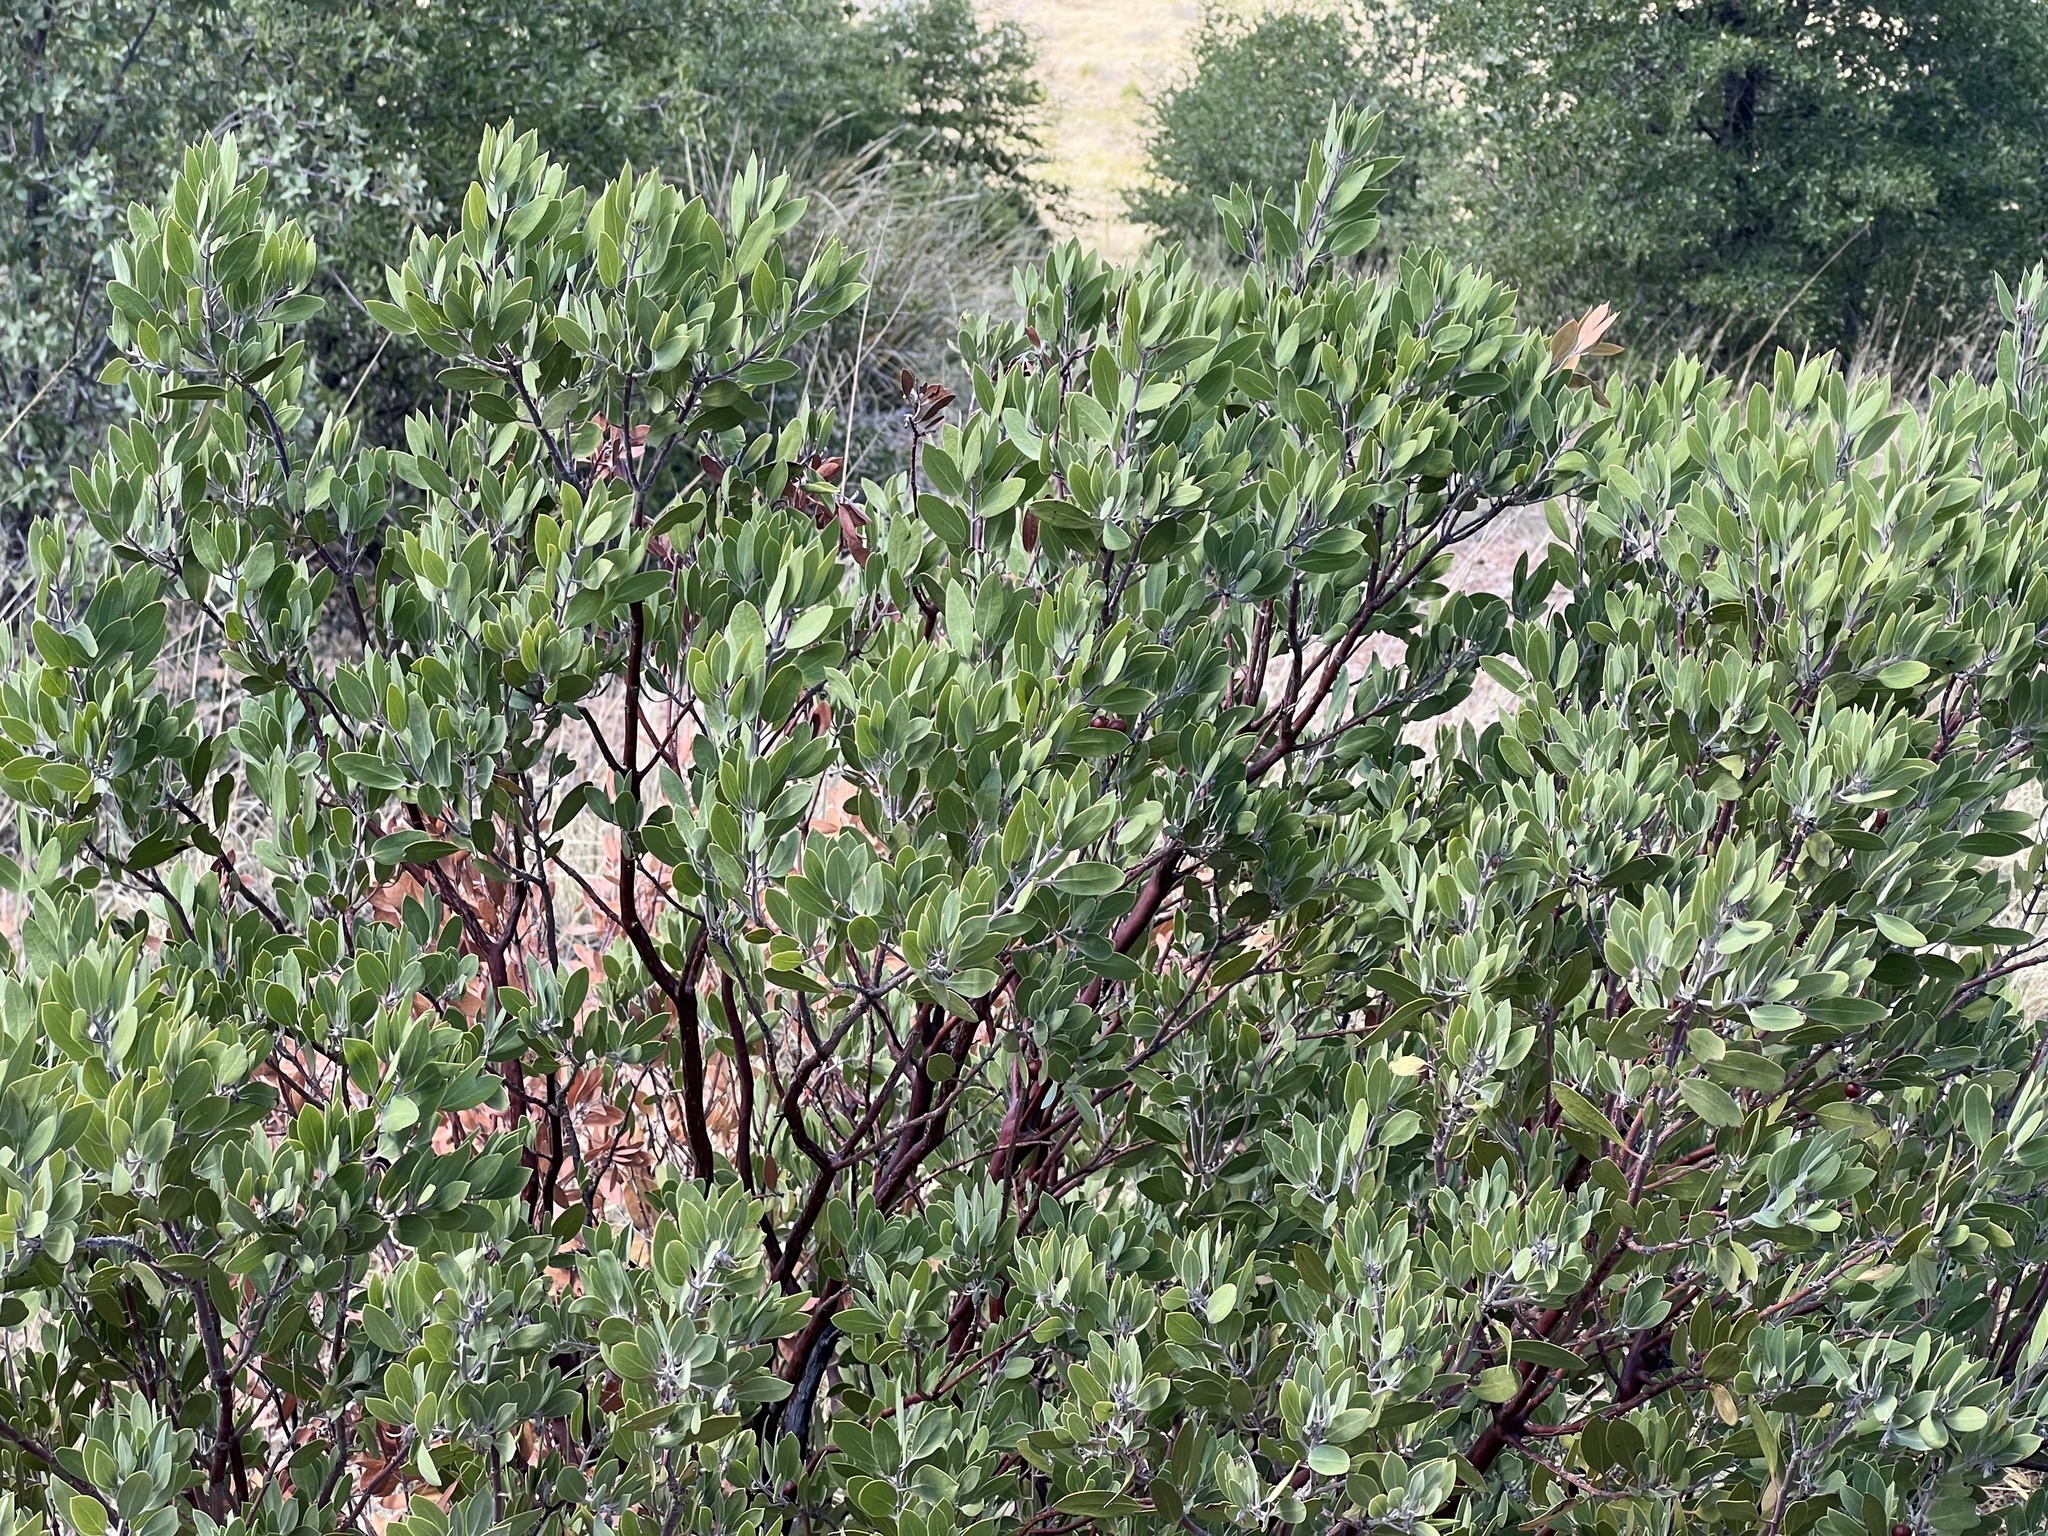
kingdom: Plantae
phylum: Tracheophyta
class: Magnoliopsida
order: Ericales
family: Ericaceae
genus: Arctostaphylos
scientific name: Arctostaphylos pungens
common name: Mexican manzanita
